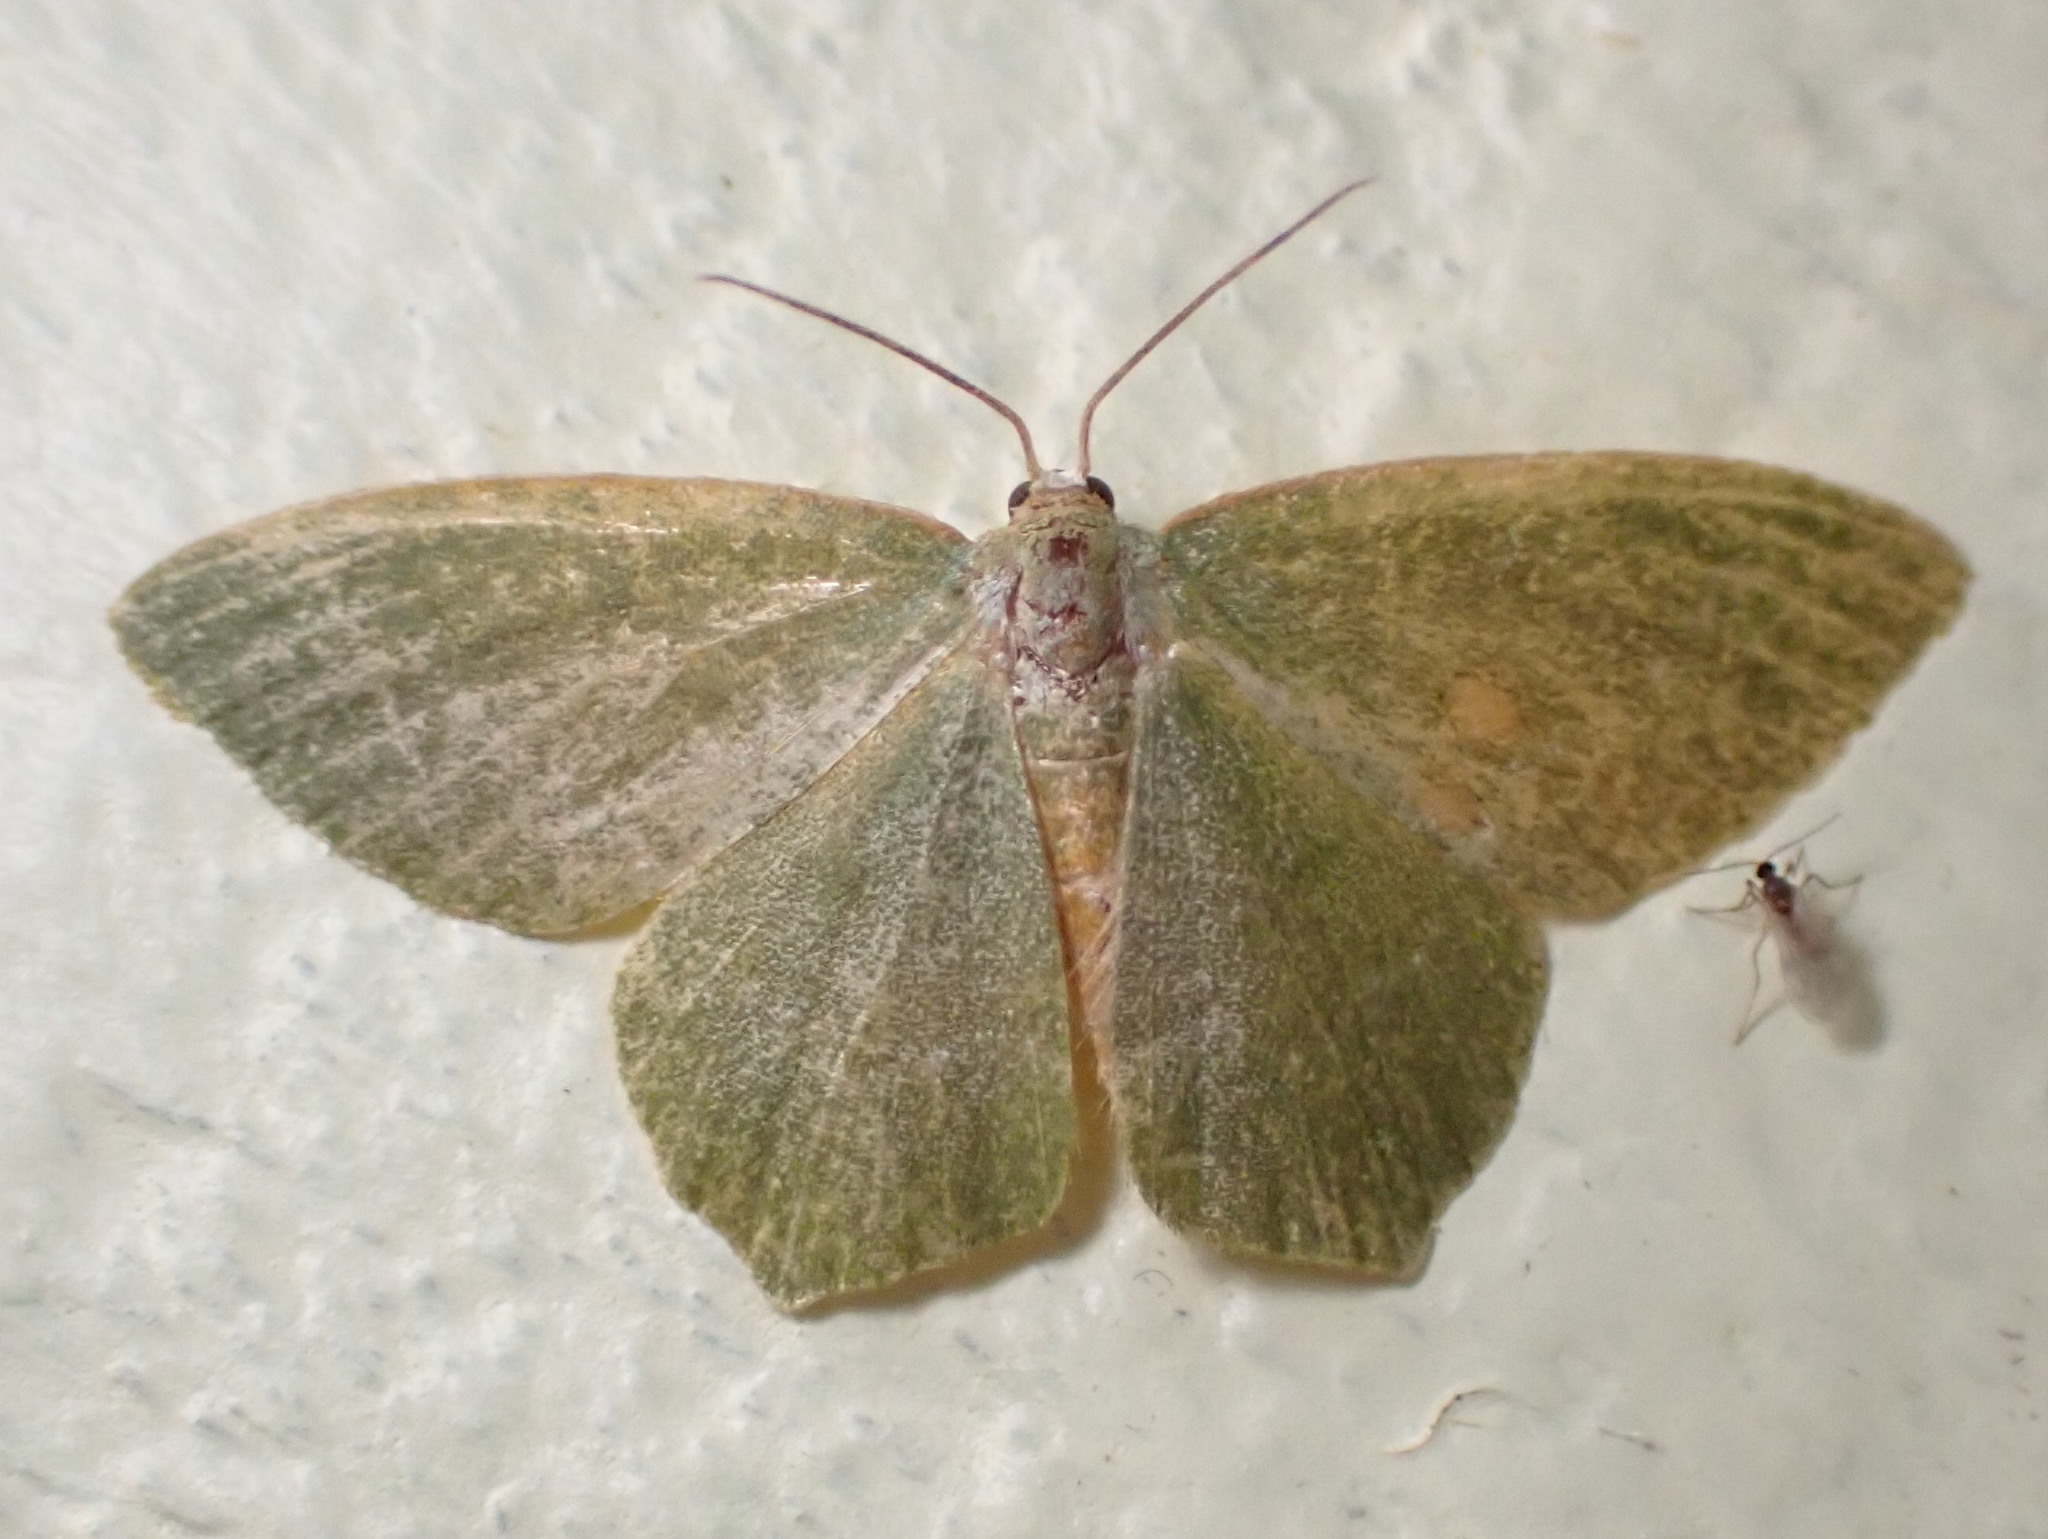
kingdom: Animalia
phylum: Arthropoda
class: Insecta
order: Lepidoptera
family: Geometridae
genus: Thalera
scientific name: Thalera pistasciaria
